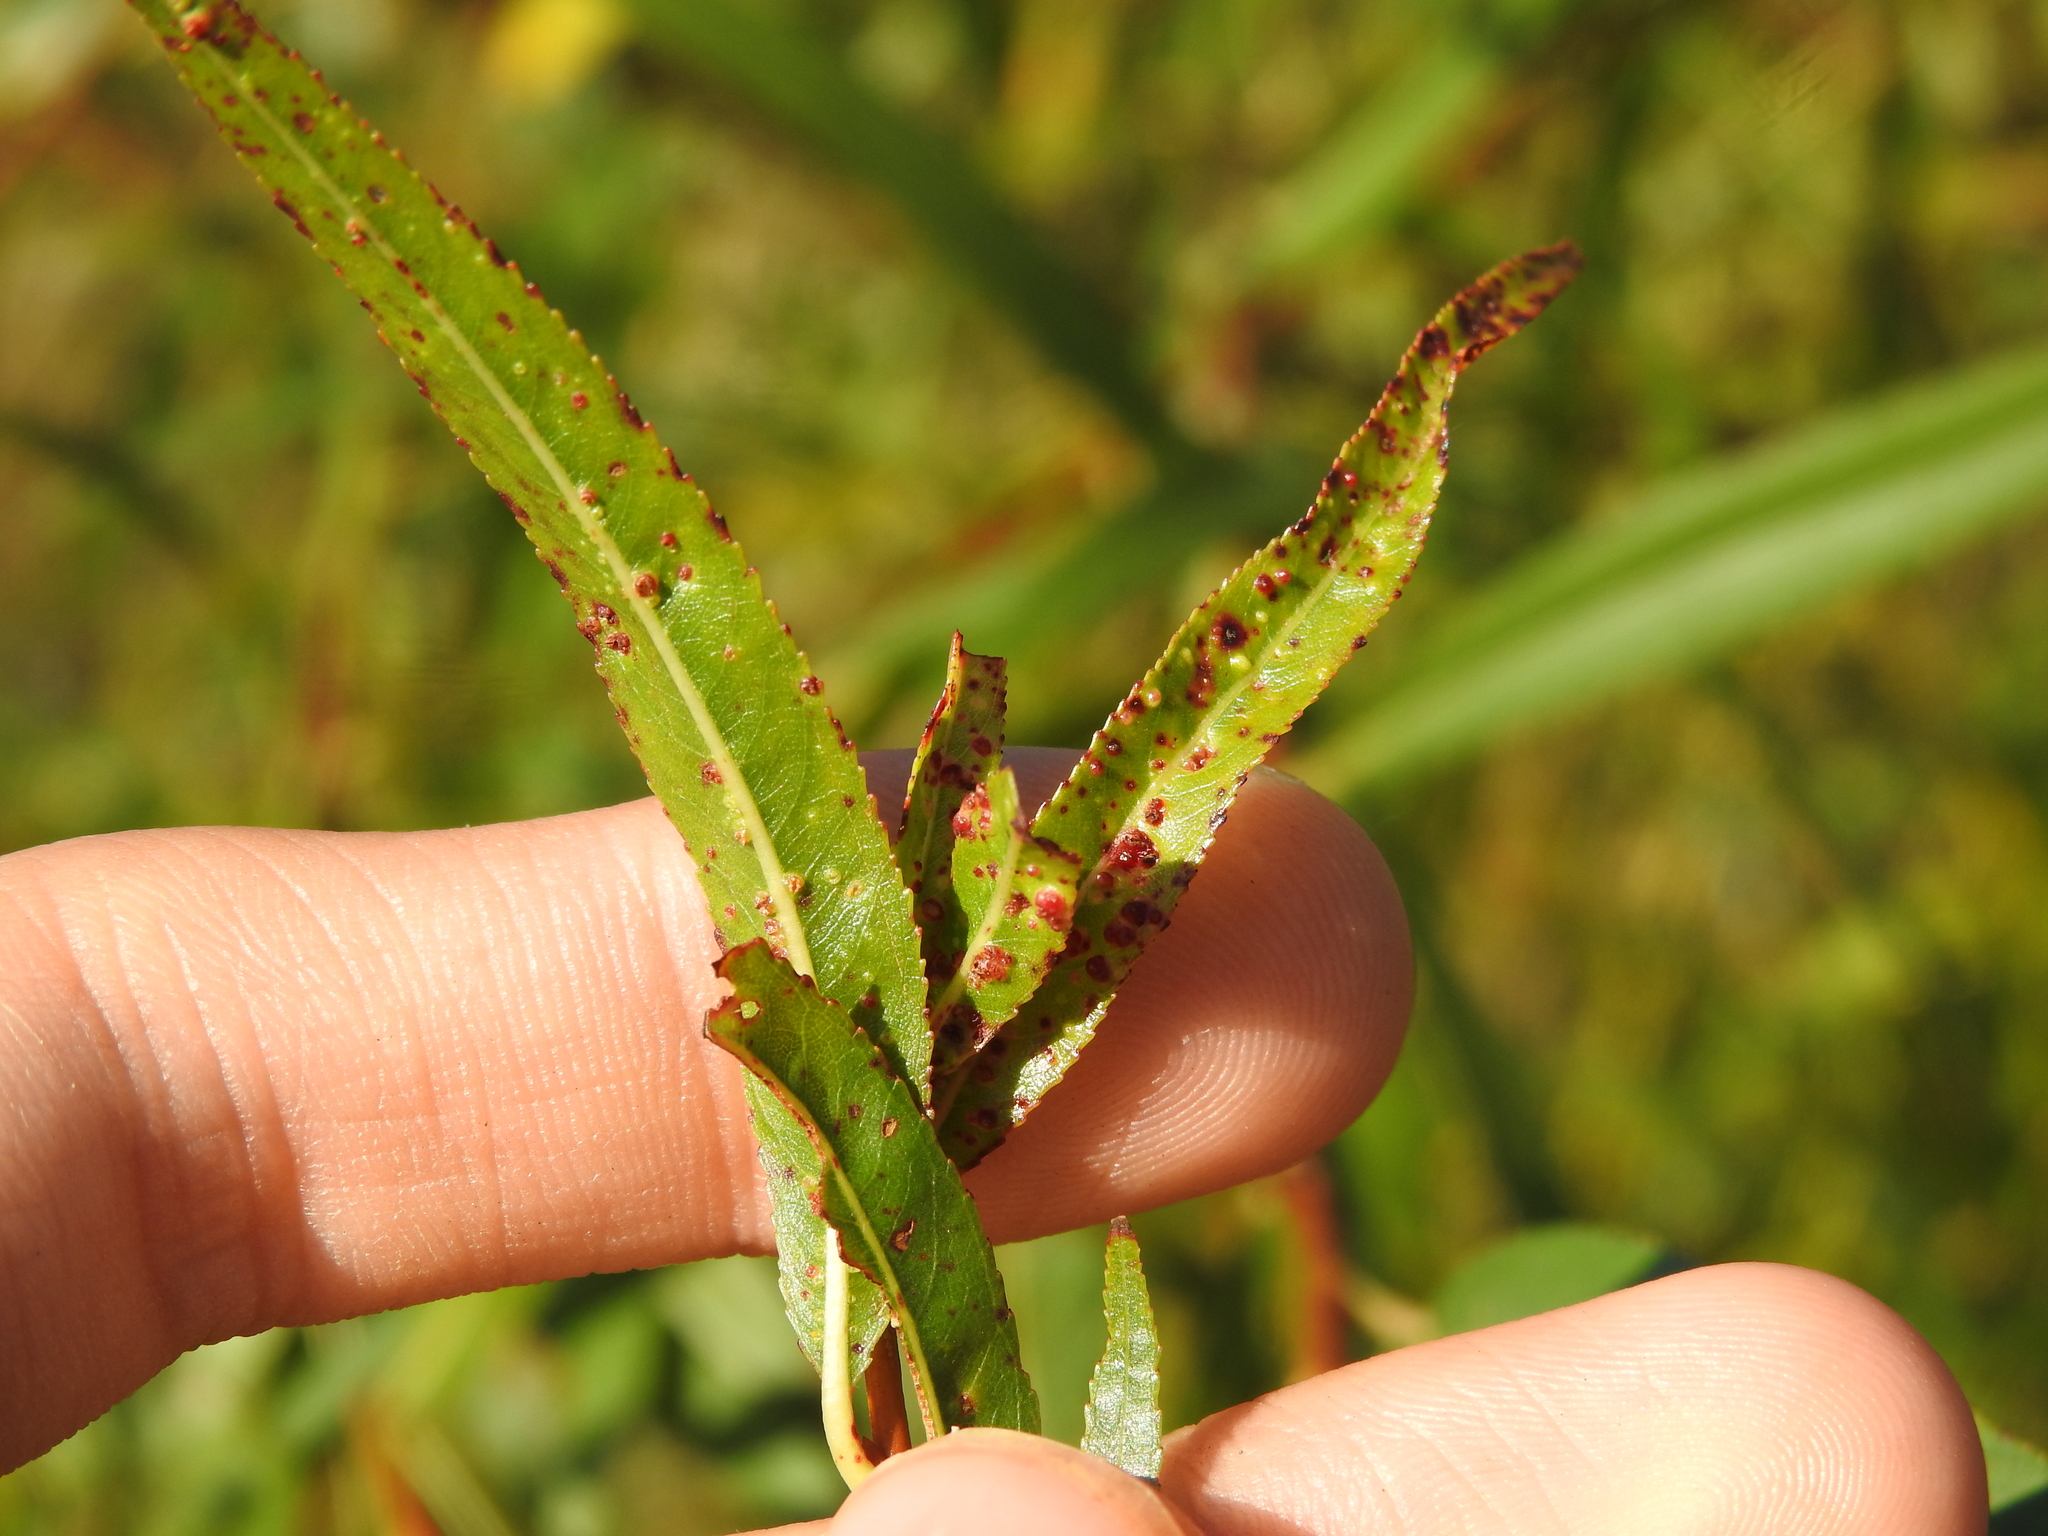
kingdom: Animalia
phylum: Arthropoda
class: Arachnida
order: Trombidiformes
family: Eriophyidae
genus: Aculus
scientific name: Aculus tetanothrix
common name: Willow bead gall mite
